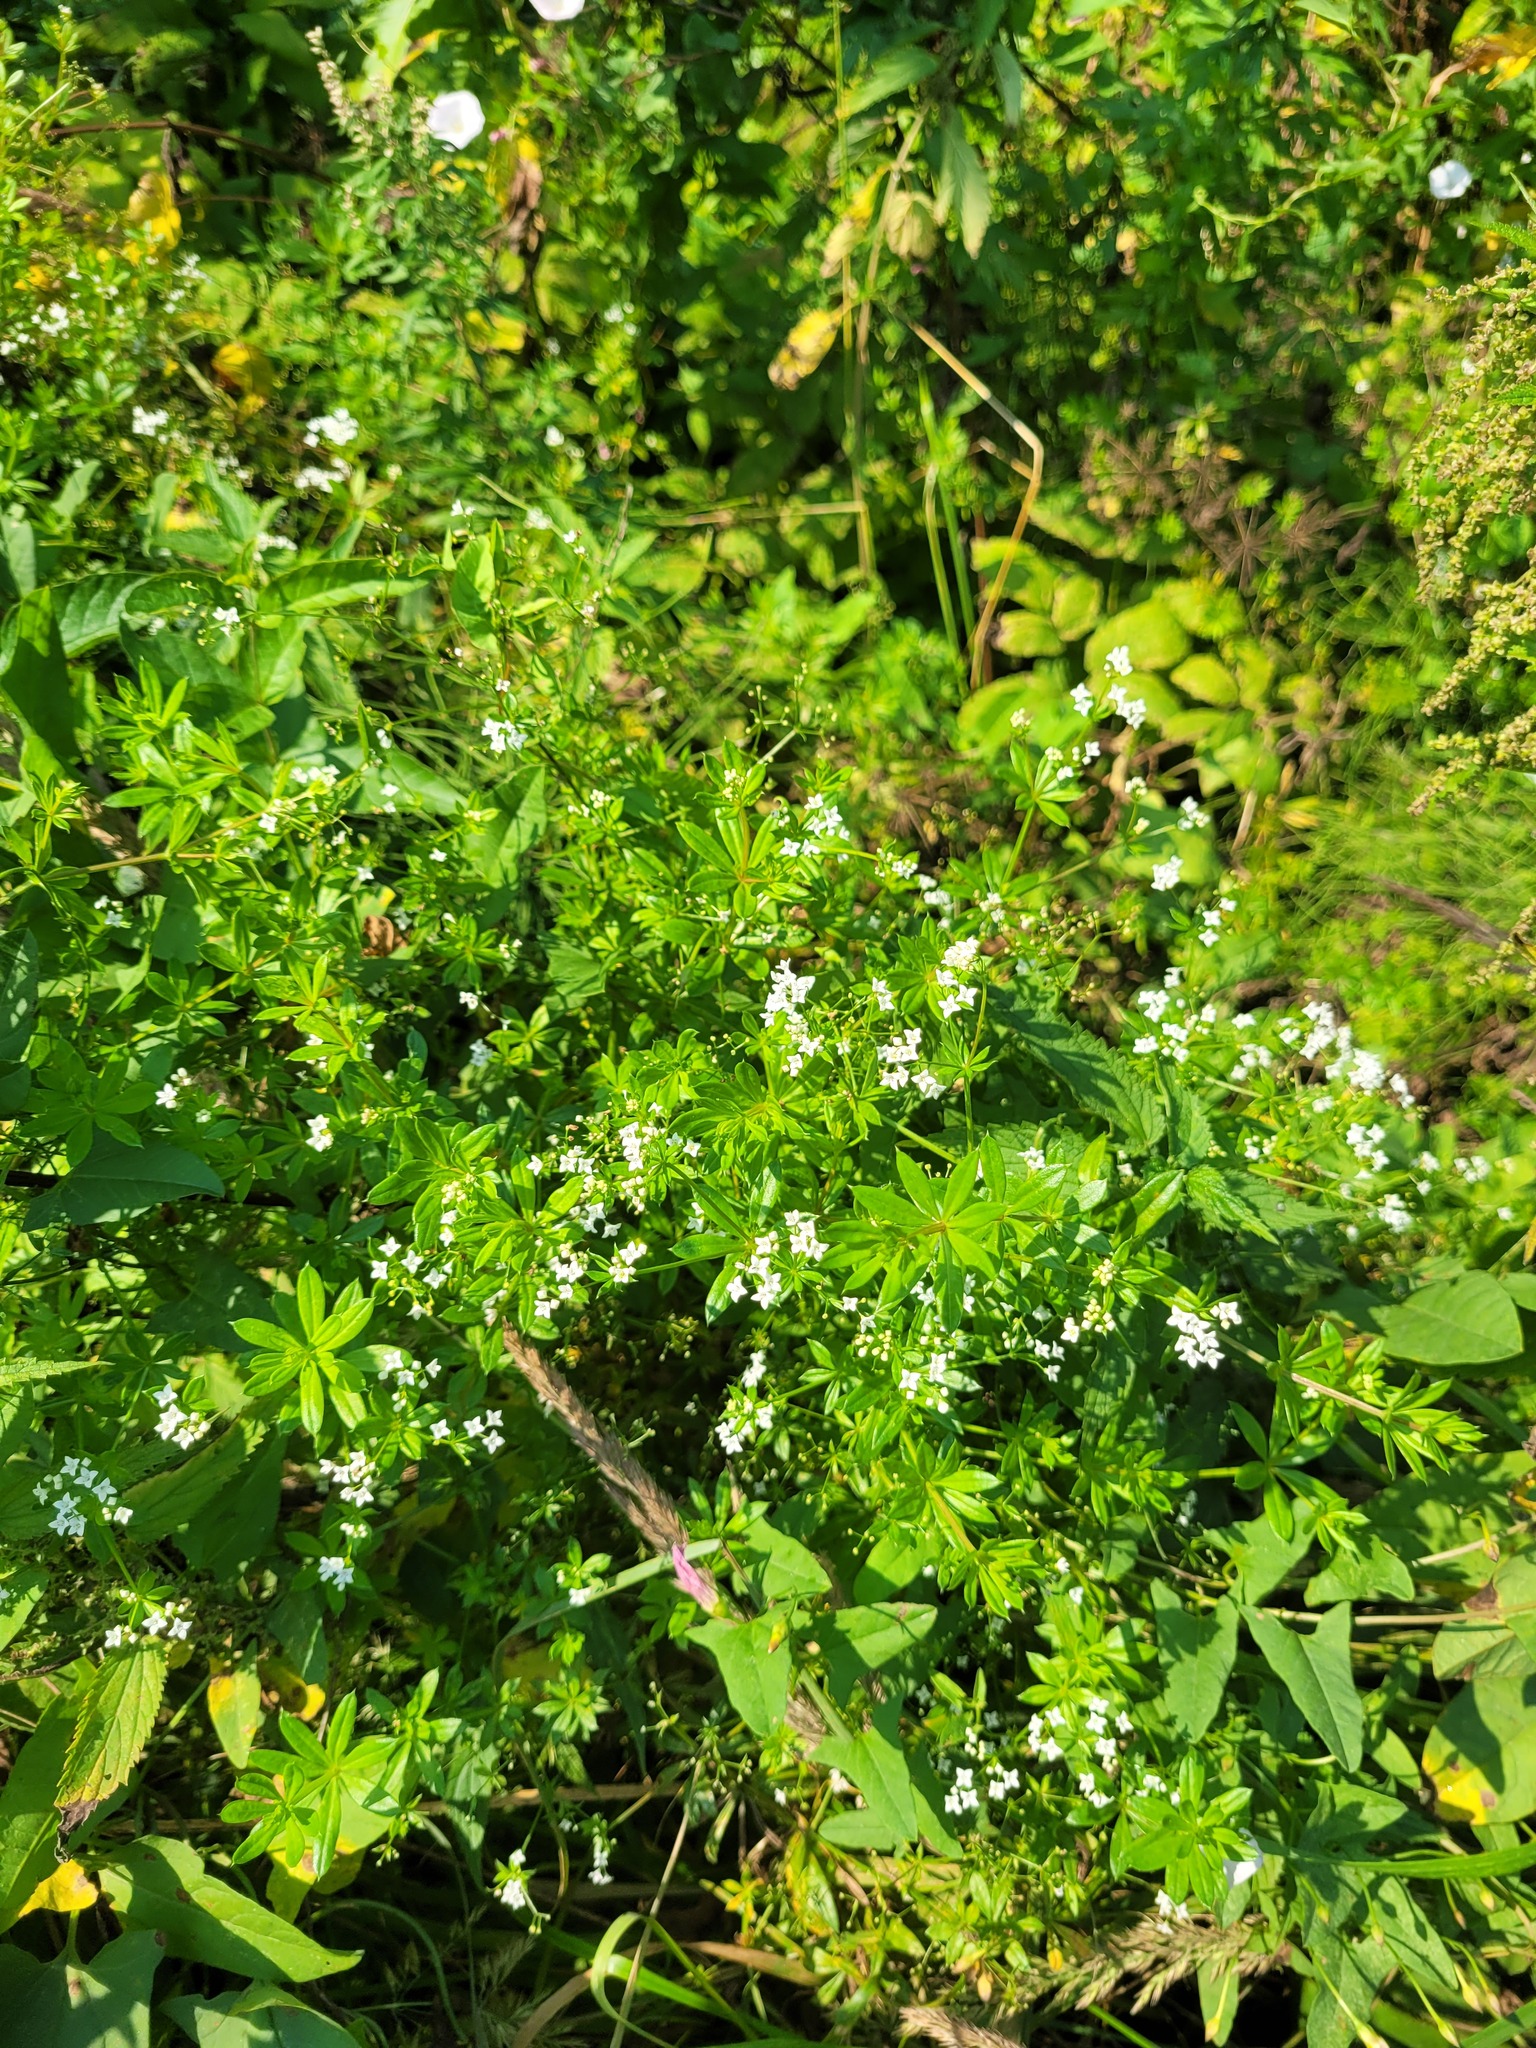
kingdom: Plantae
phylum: Tracheophyta
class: Magnoliopsida
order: Gentianales
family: Rubiaceae
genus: Galium
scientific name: Galium rivale
